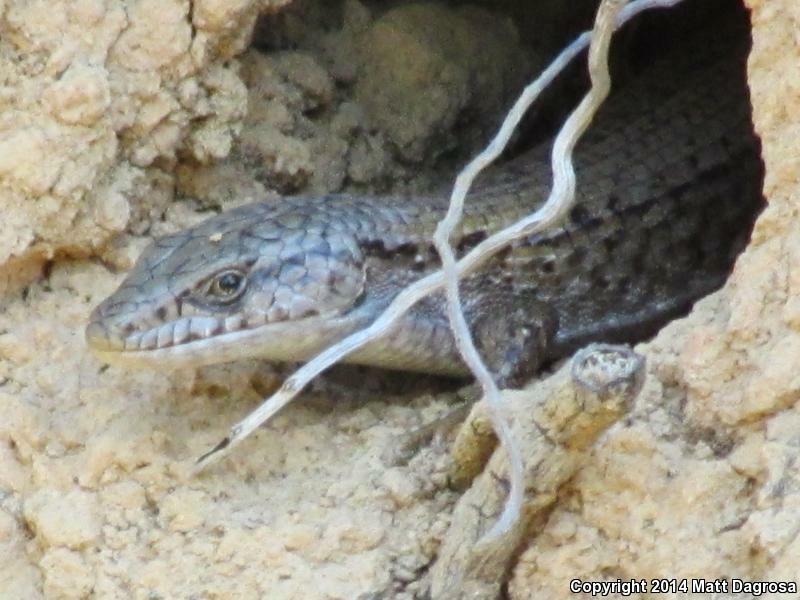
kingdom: Animalia
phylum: Chordata
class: Squamata
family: Anguidae
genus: Elgaria
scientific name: Elgaria coerulea
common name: Northern alligator lizard
